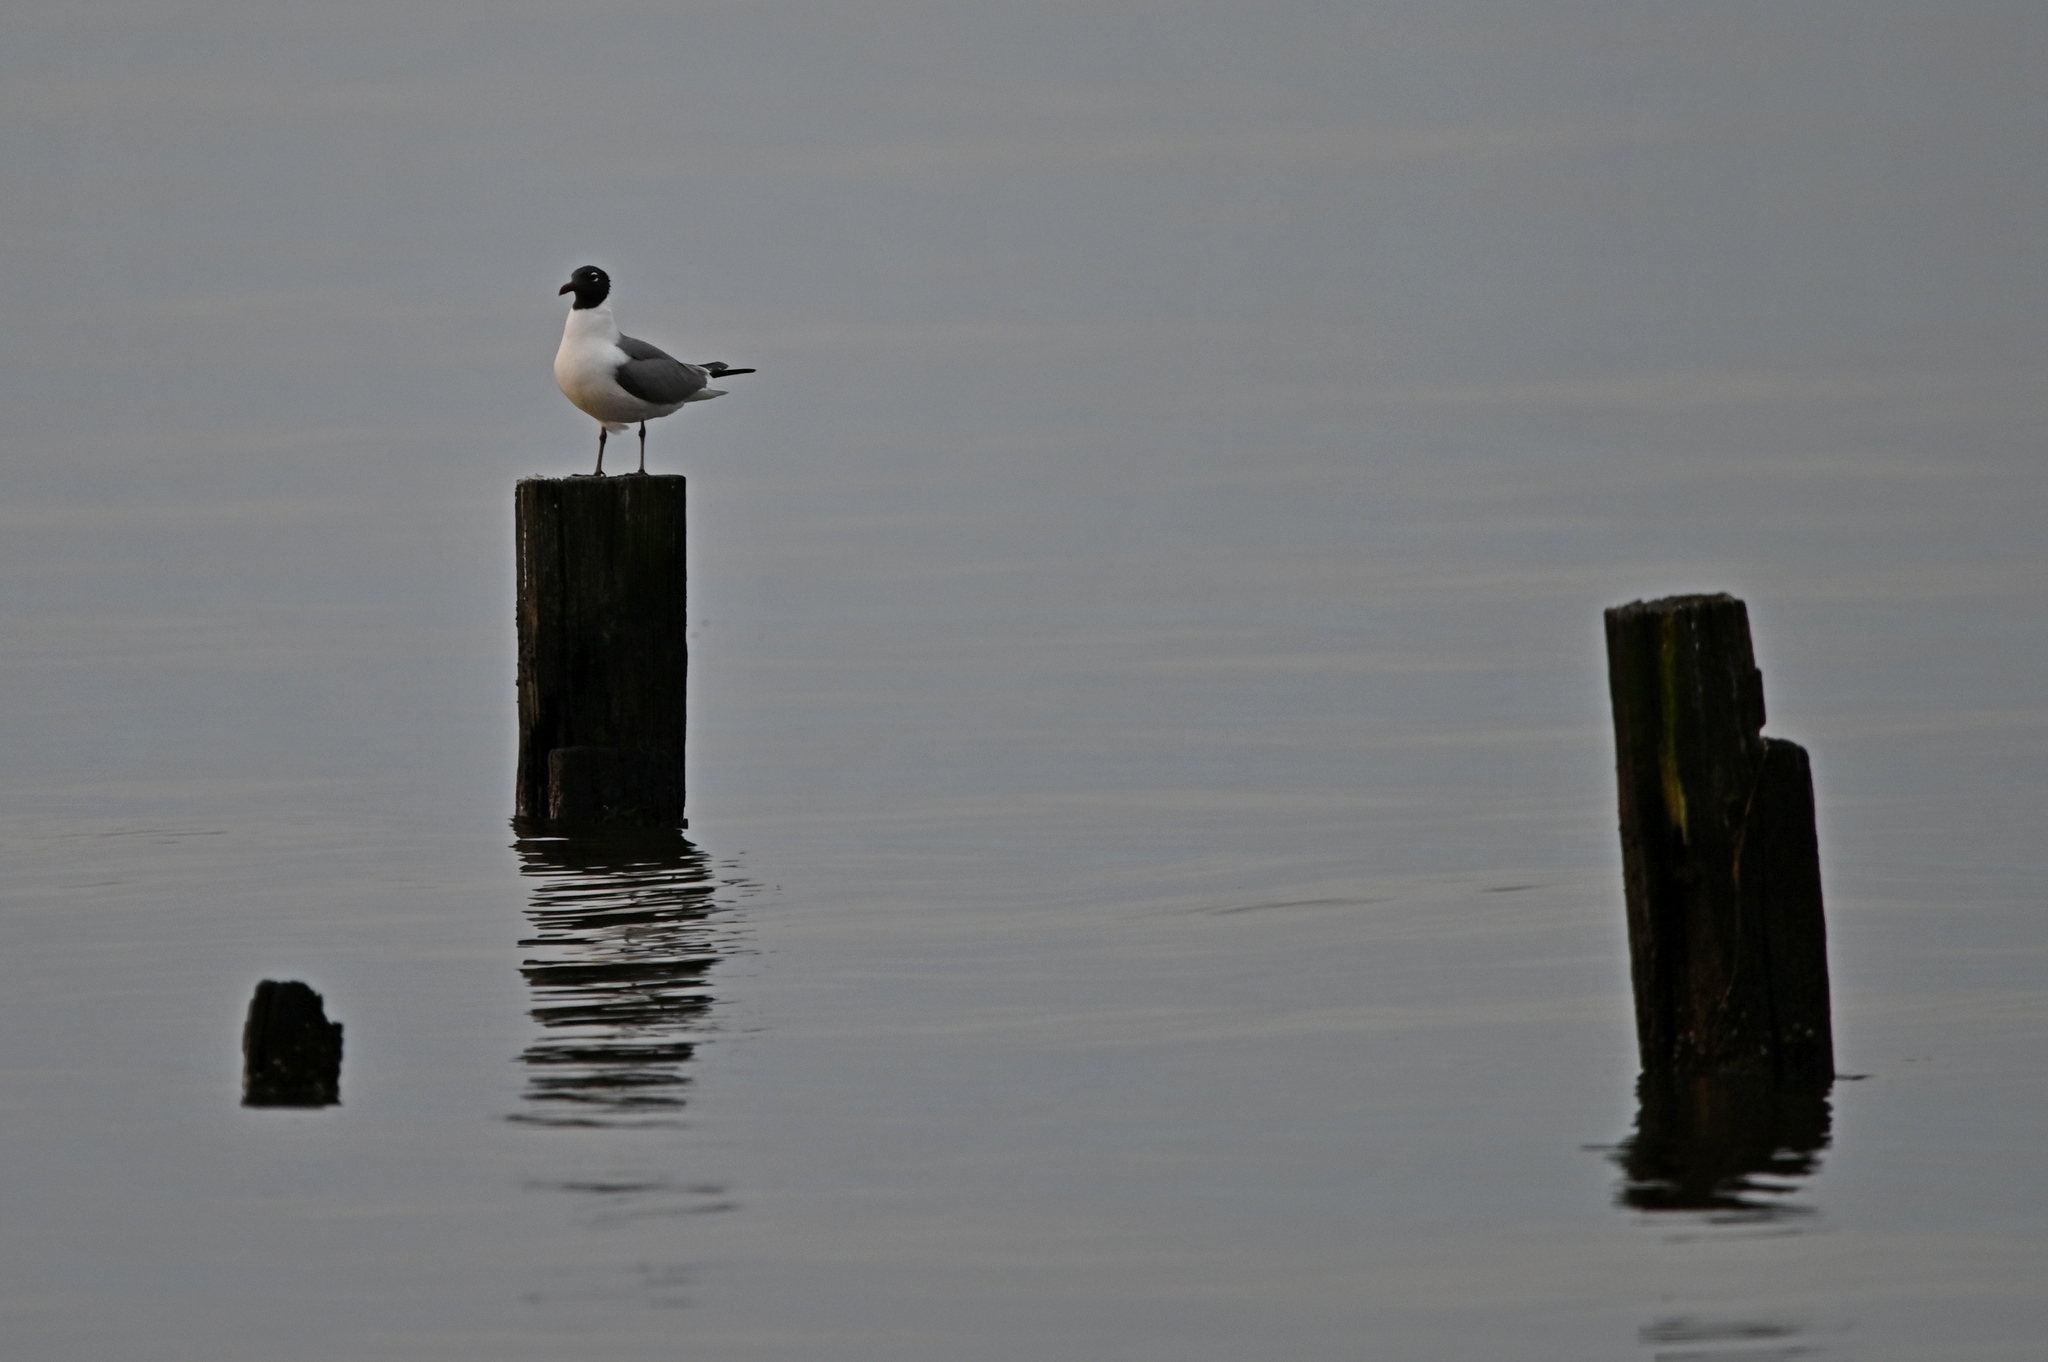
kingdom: Animalia
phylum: Chordata
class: Aves
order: Charadriiformes
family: Laridae
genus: Leucophaeus
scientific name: Leucophaeus atricilla
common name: Laughing gull
